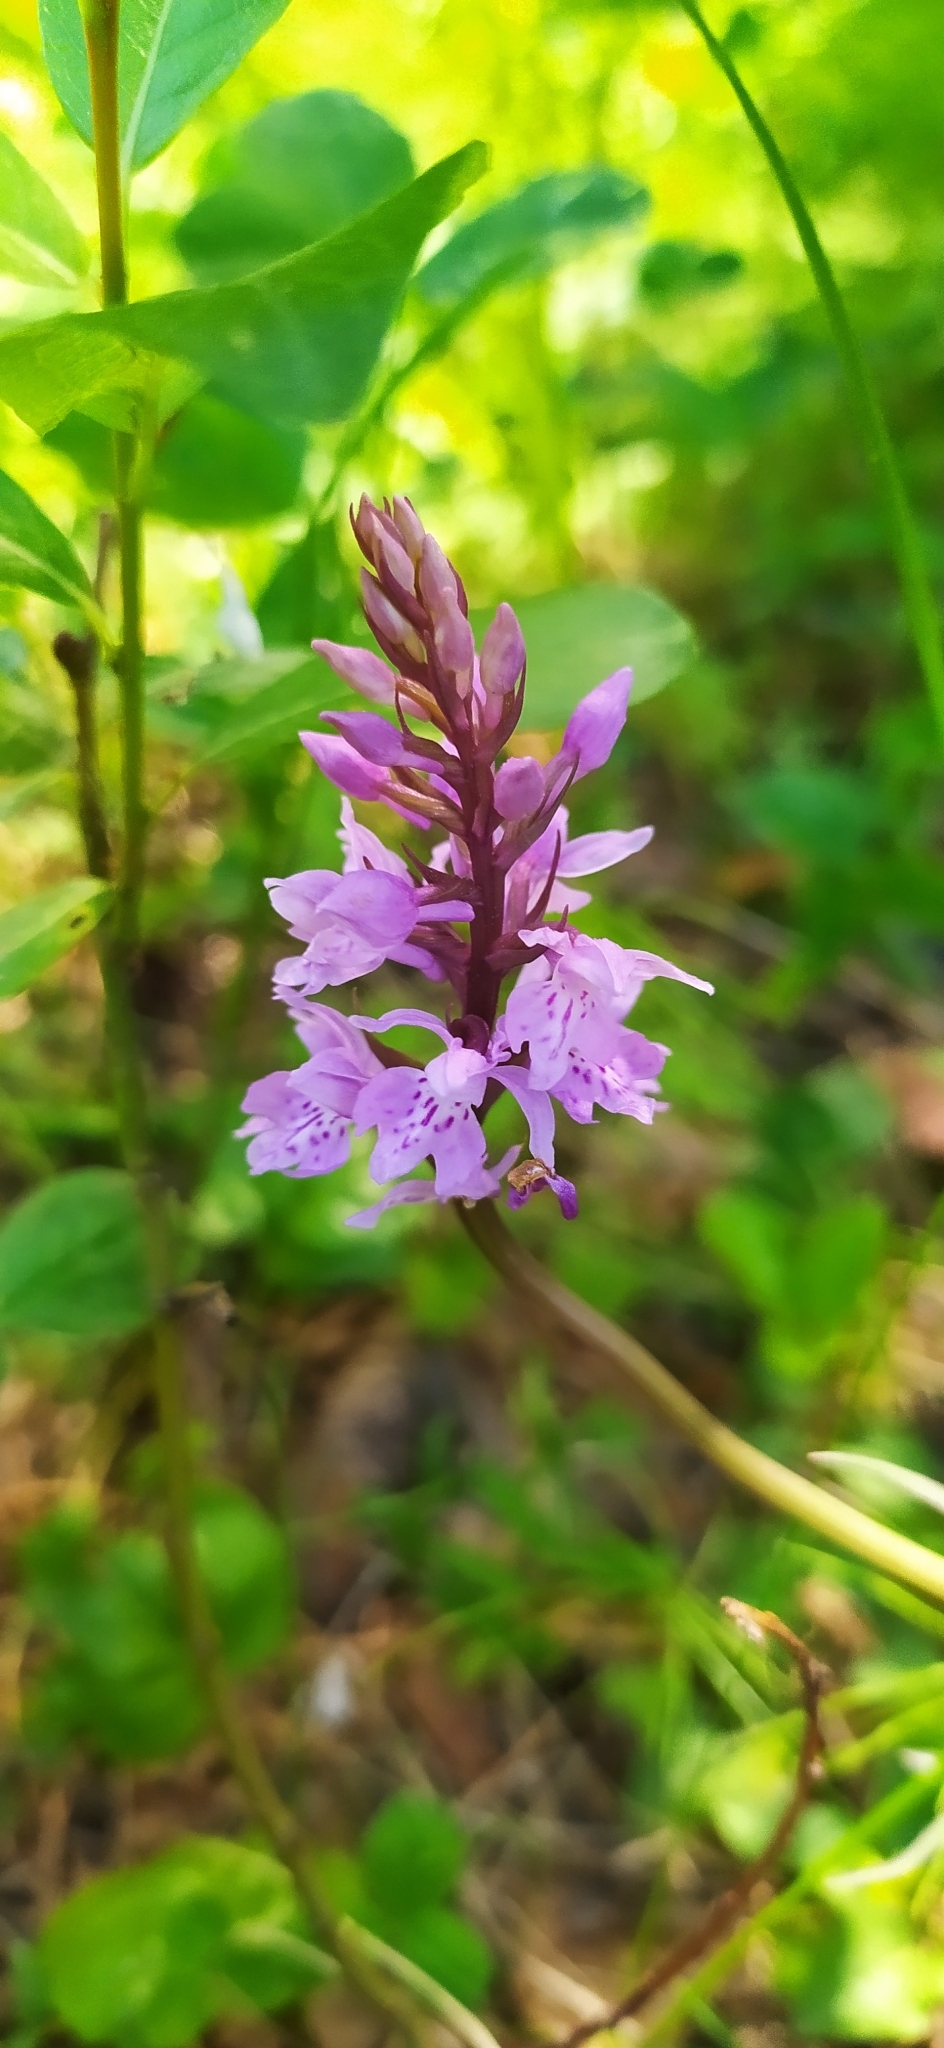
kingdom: Plantae
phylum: Tracheophyta
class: Liliopsida
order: Asparagales
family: Orchidaceae
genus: Dactylorhiza
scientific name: Dactylorhiza maculata
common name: Heath spotted-orchid
